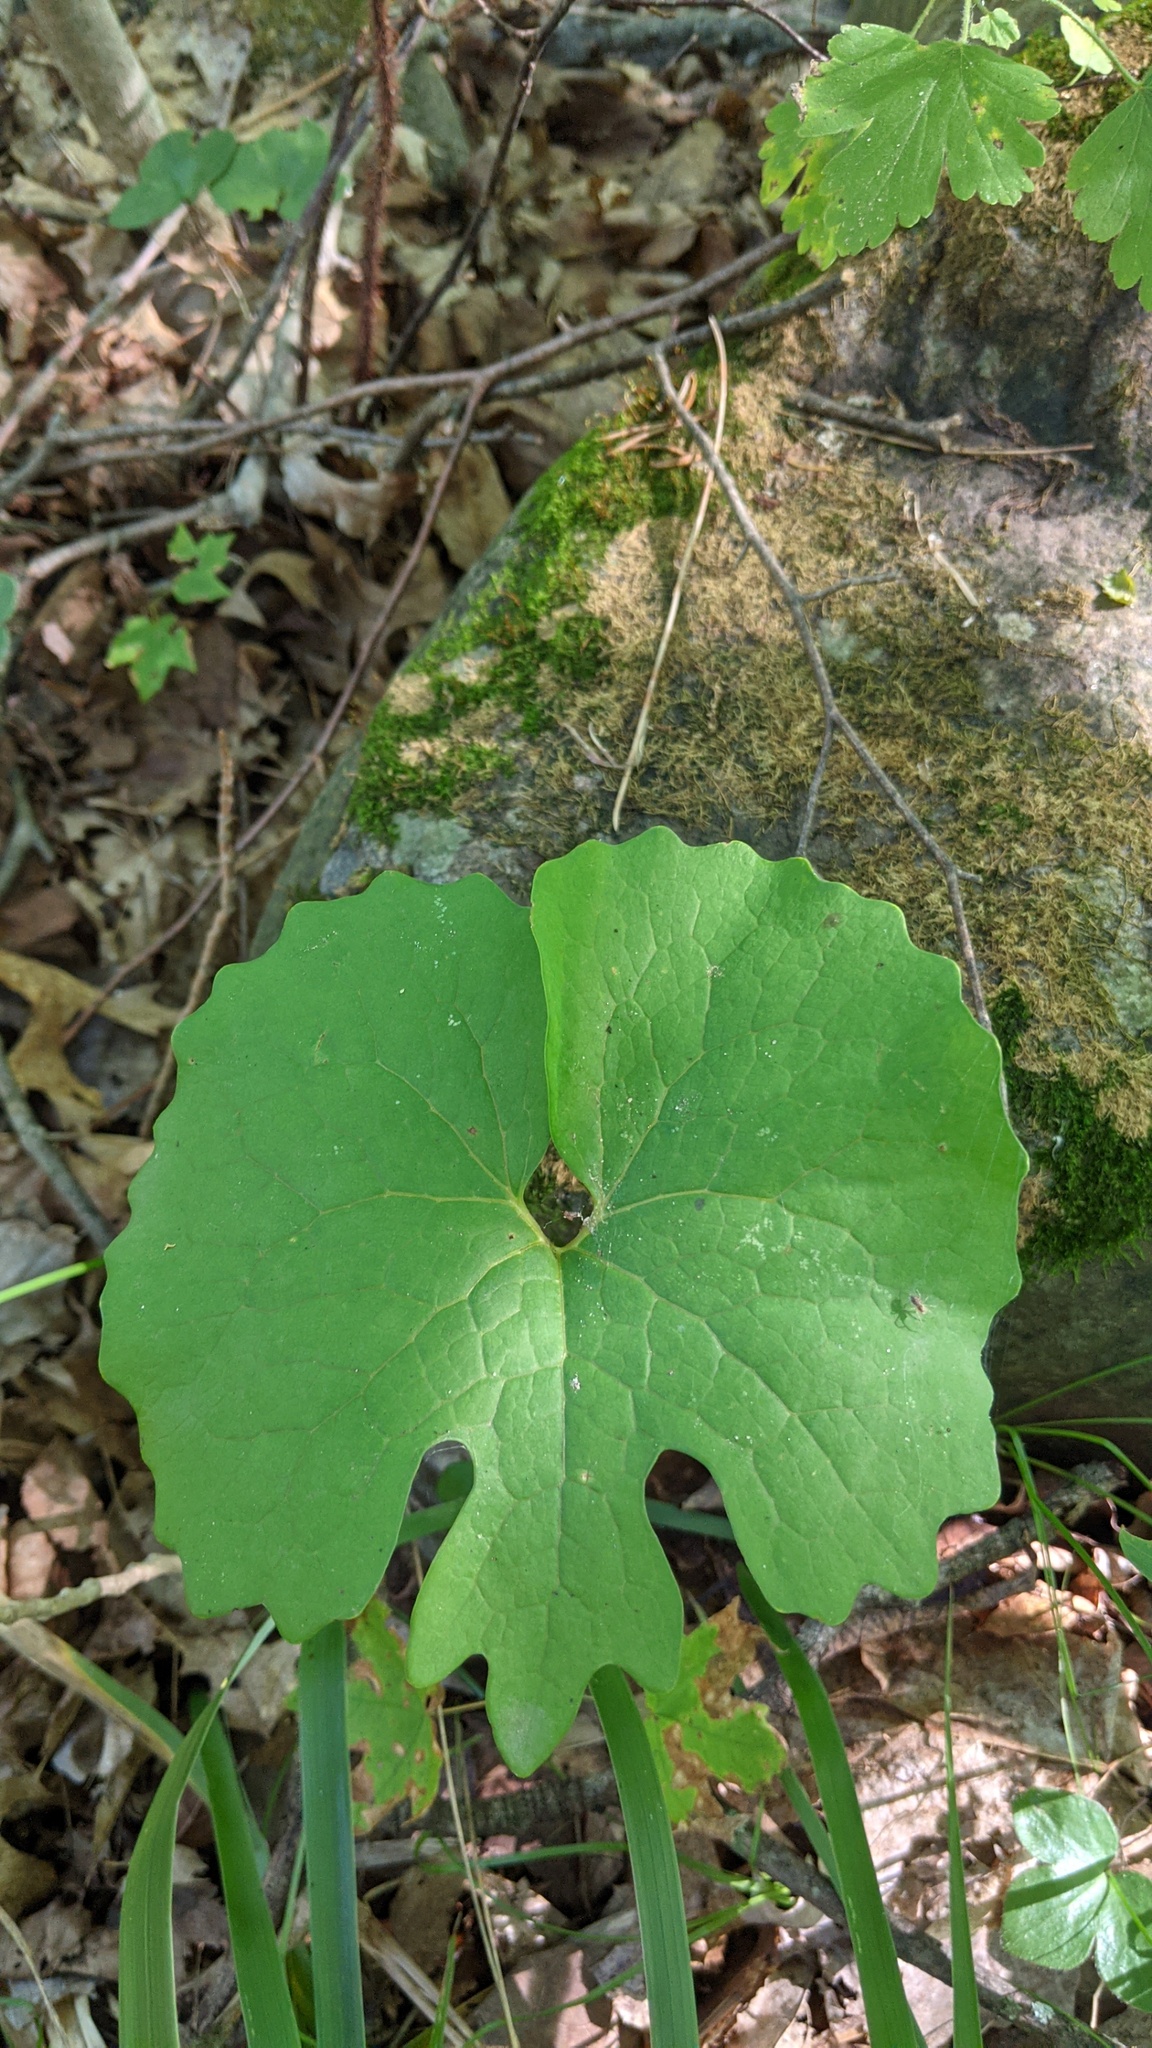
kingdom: Plantae
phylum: Tracheophyta
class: Magnoliopsida
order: Ranunculales
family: Papaveraceae
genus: Sanguinaria
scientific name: Sanguinaria canadensis
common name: Bloodroot
